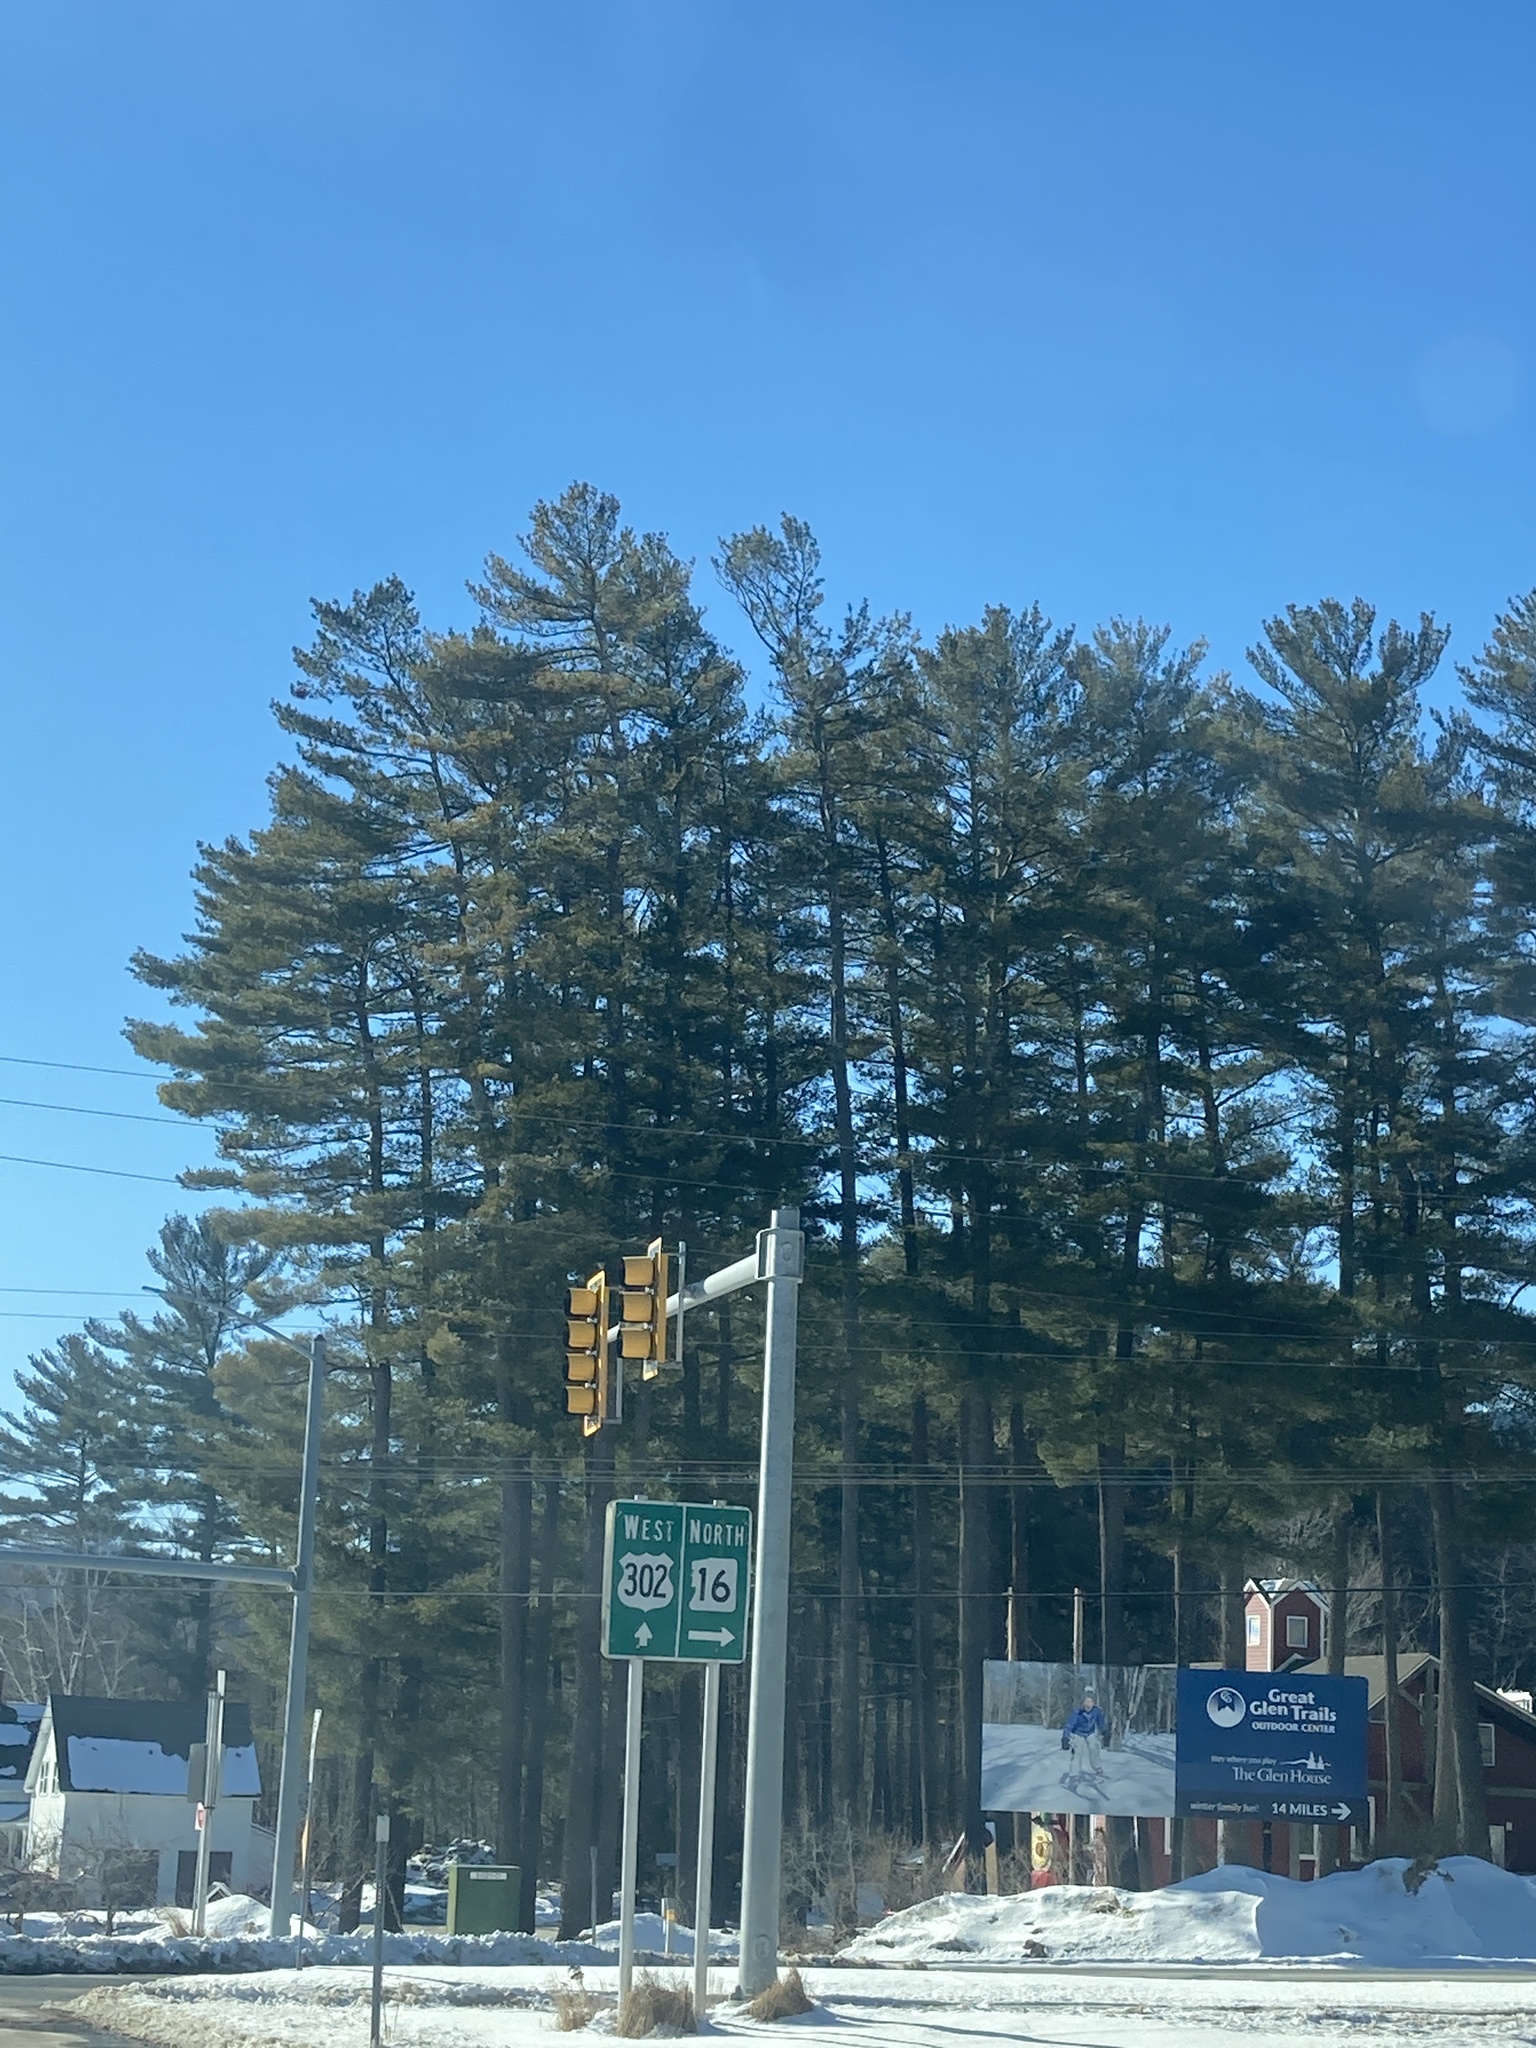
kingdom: Plantae
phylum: Tracheophyta
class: Pinopsida
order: Pinales
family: Pinaceae
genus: Pinus
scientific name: Pinus strobus
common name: Weymouth pine
